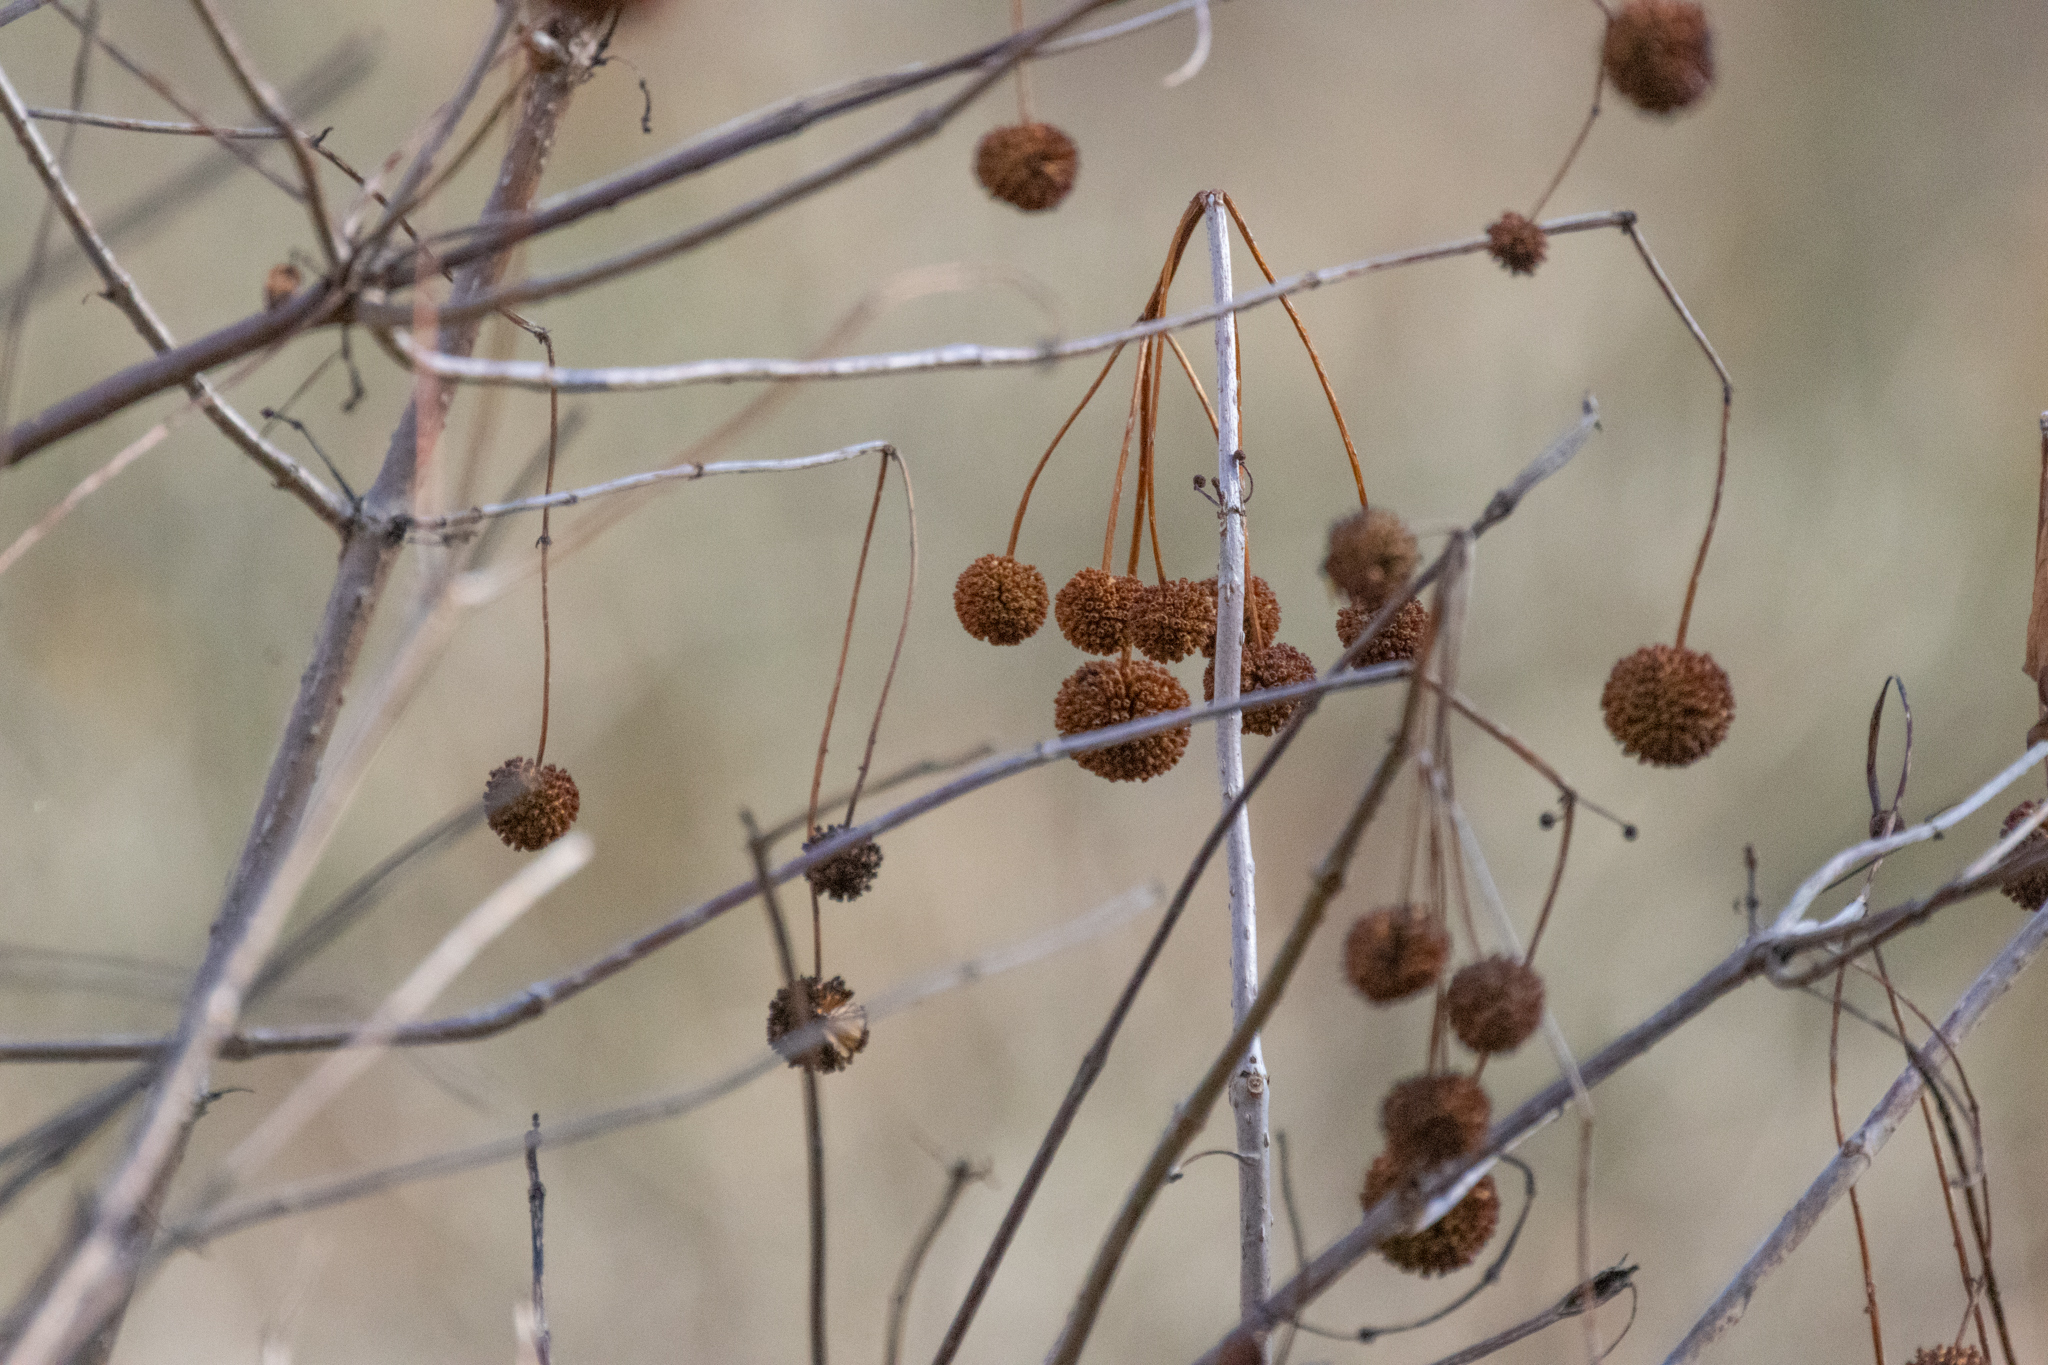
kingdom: Plantae
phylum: Tracheophyta
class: Magnoliopsida
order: Gentianales
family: Rubiaceae
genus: Cephalanthus
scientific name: Cephalanthus occidentalis
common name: Button-willow
